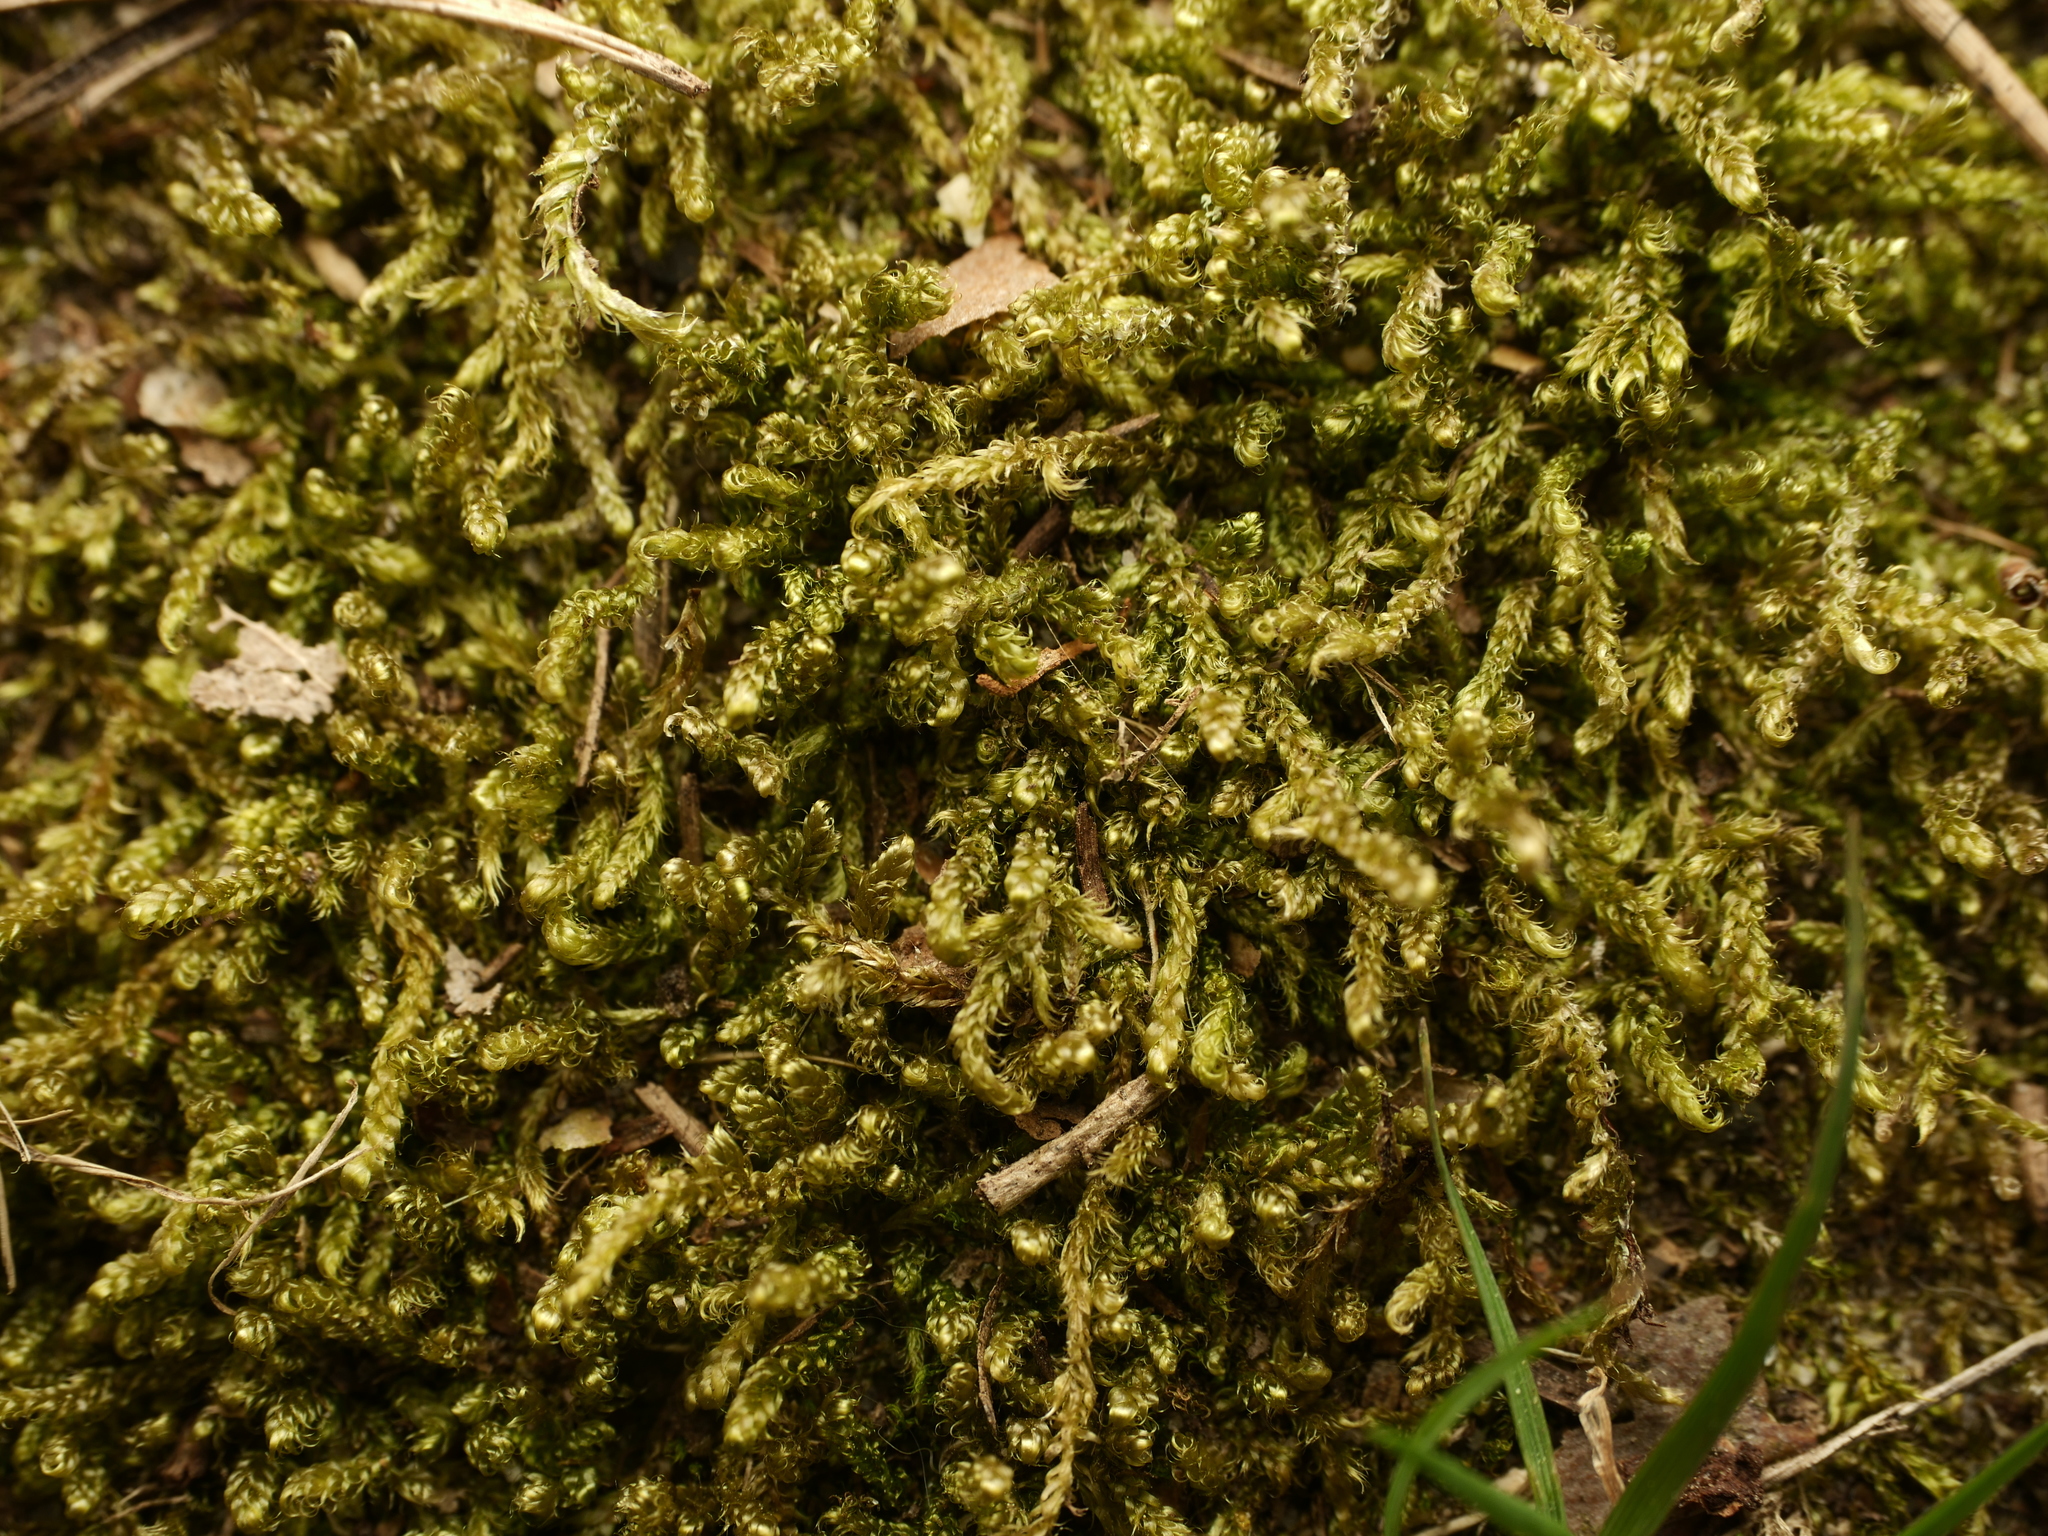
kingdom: Plantae
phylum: Bryophyta
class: Bryopsida
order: Hypnales
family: Hypnaceae
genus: Hypnum
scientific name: Hypnum cupressiforme
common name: Cypress-leaved plait-moss
